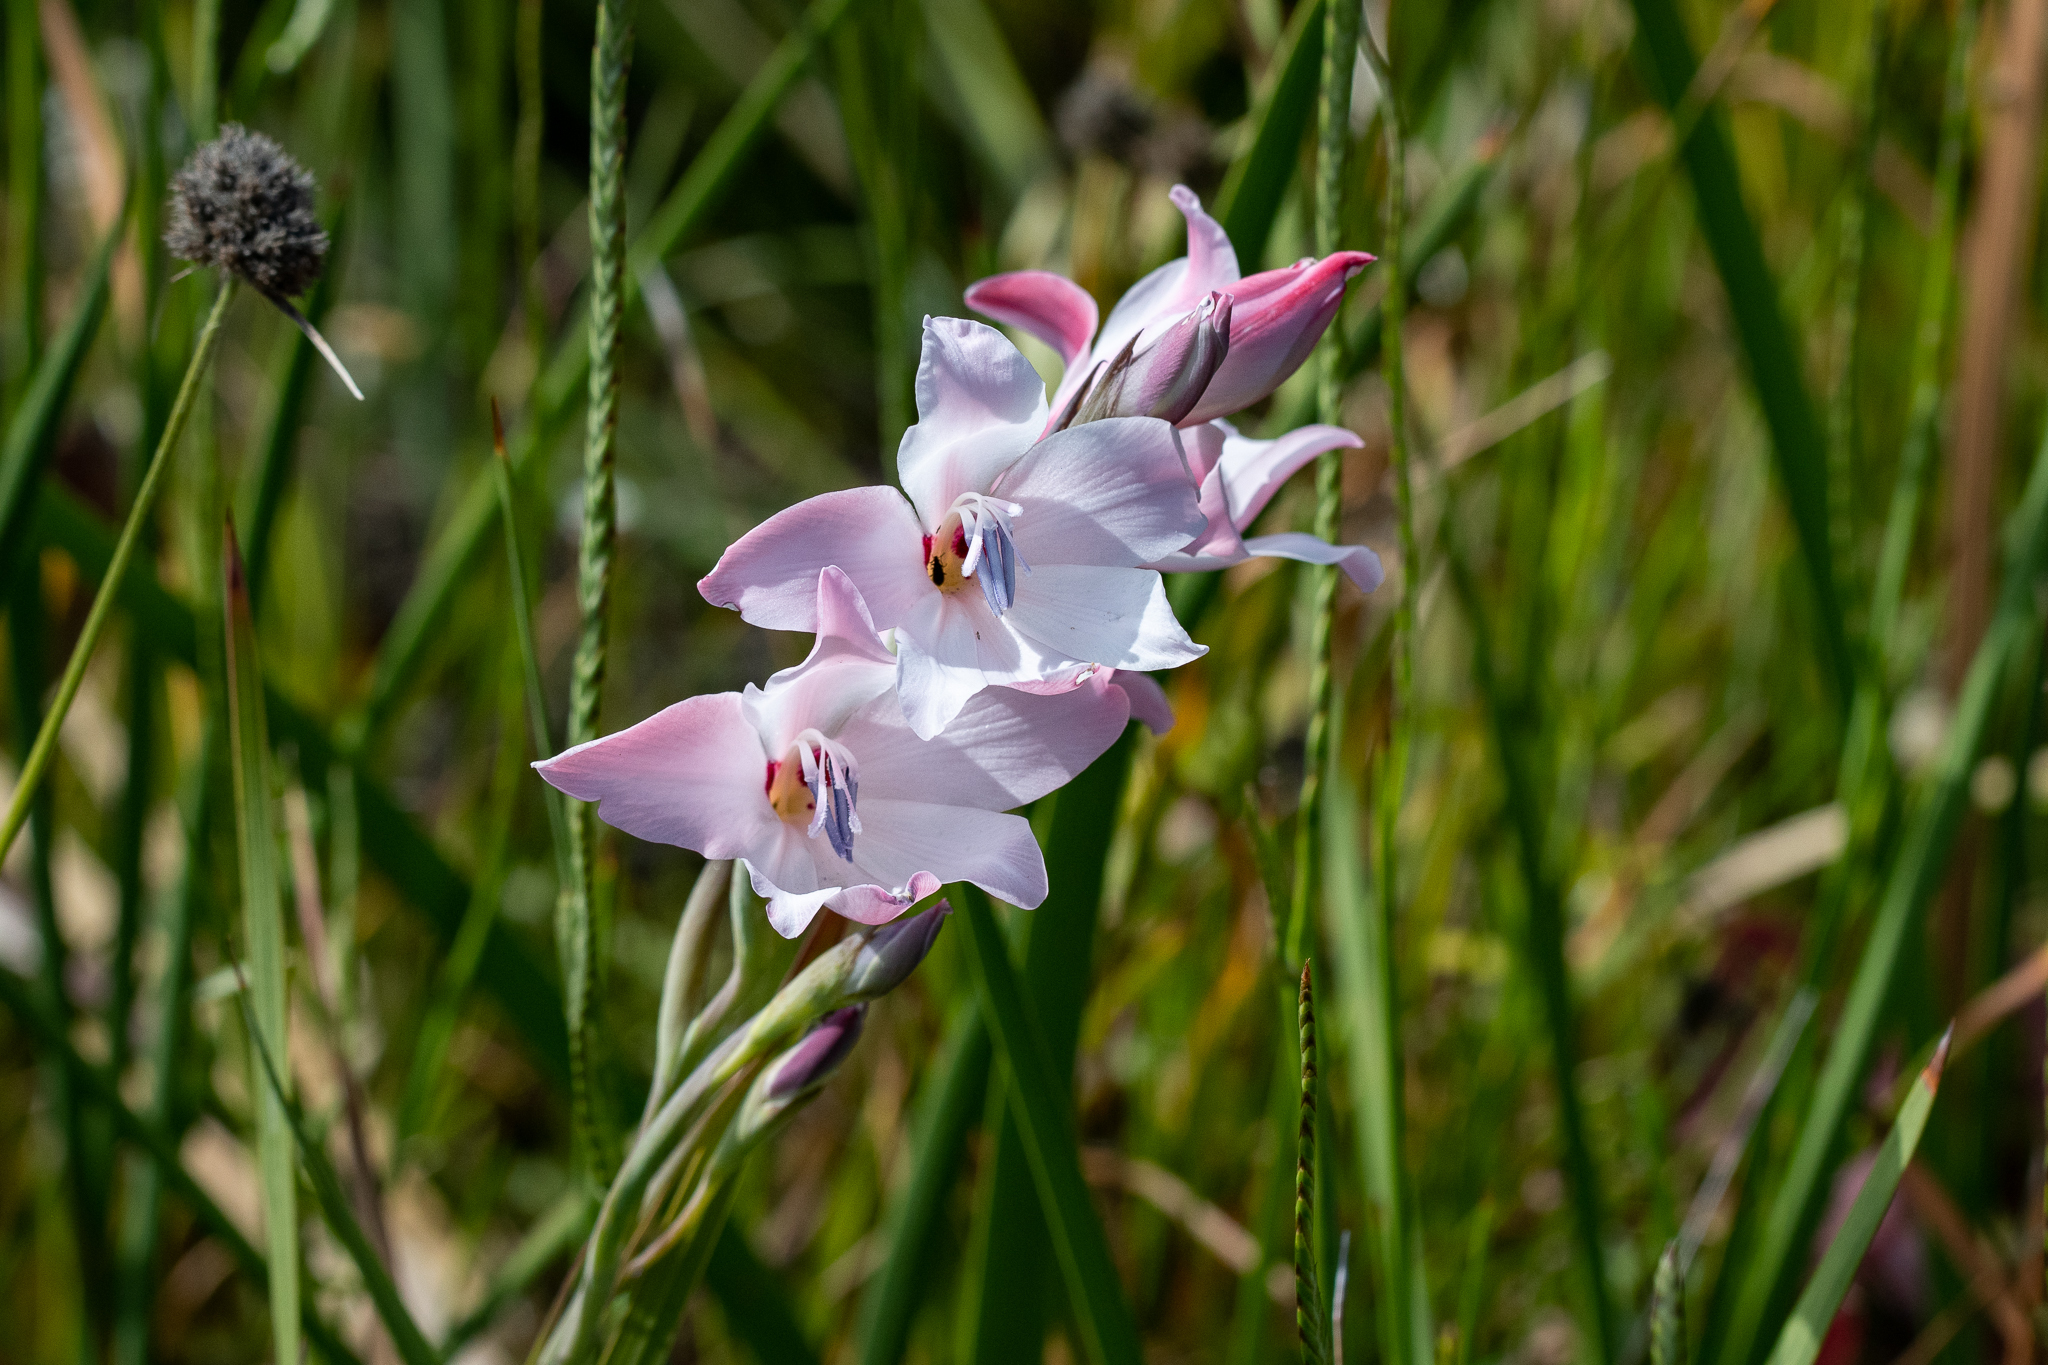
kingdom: Plantae
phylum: Tracheophyta
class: Liliopsida
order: Asparagales
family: Iridaceae
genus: Gladiolus
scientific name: Gladiolus carneus
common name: Painted-lady
